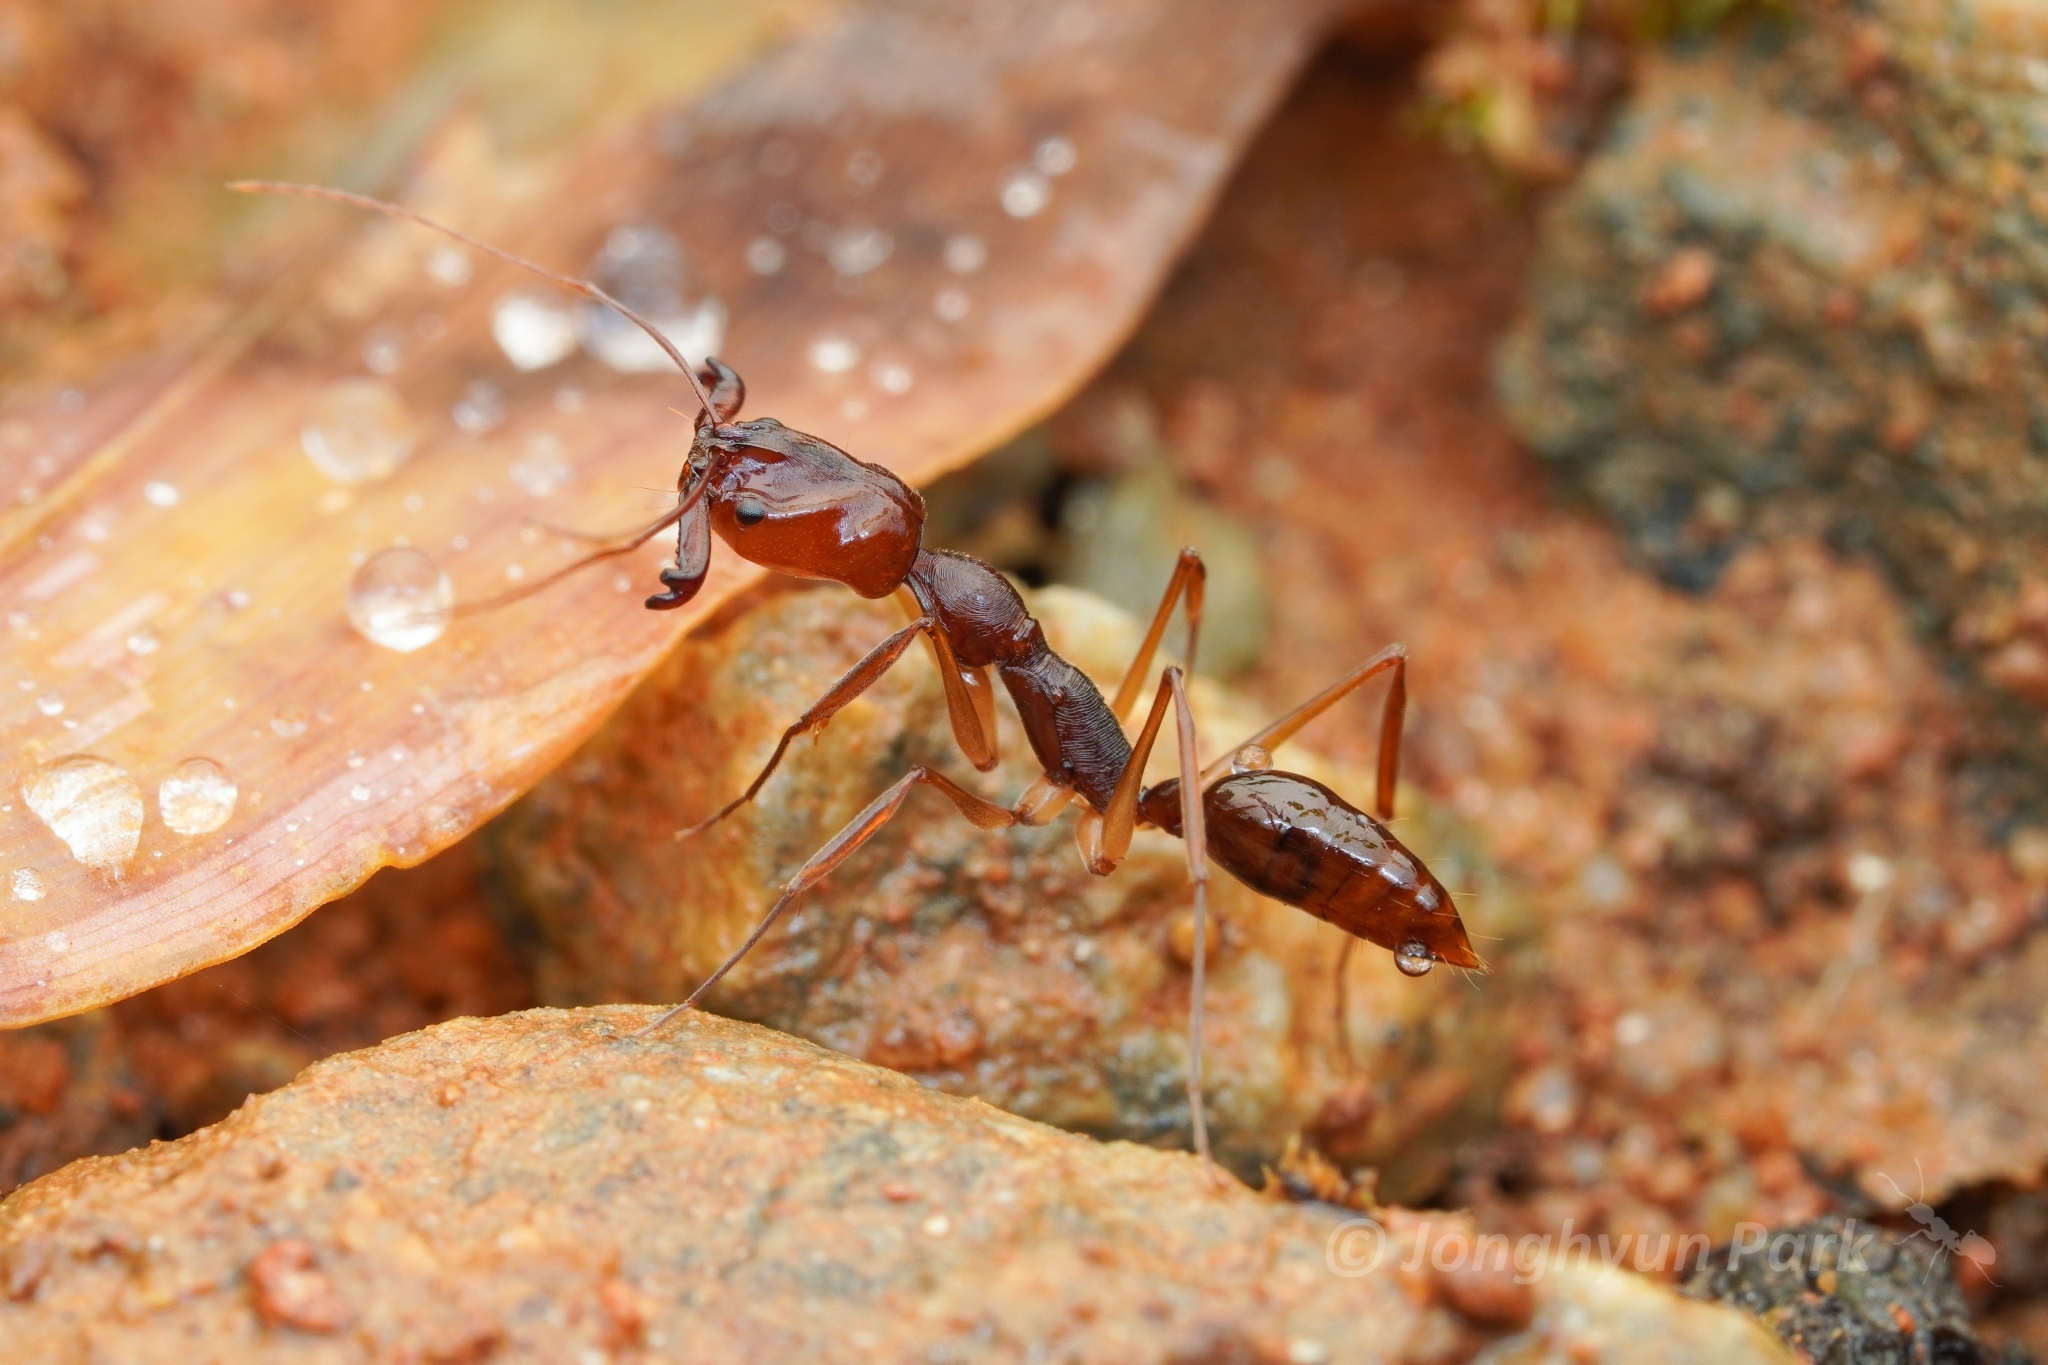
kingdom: Animalia
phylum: Arthropoda
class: Insecta
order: Hymenoptera
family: Formicidae
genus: Odontomachus
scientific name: Odontomachus rixosus
